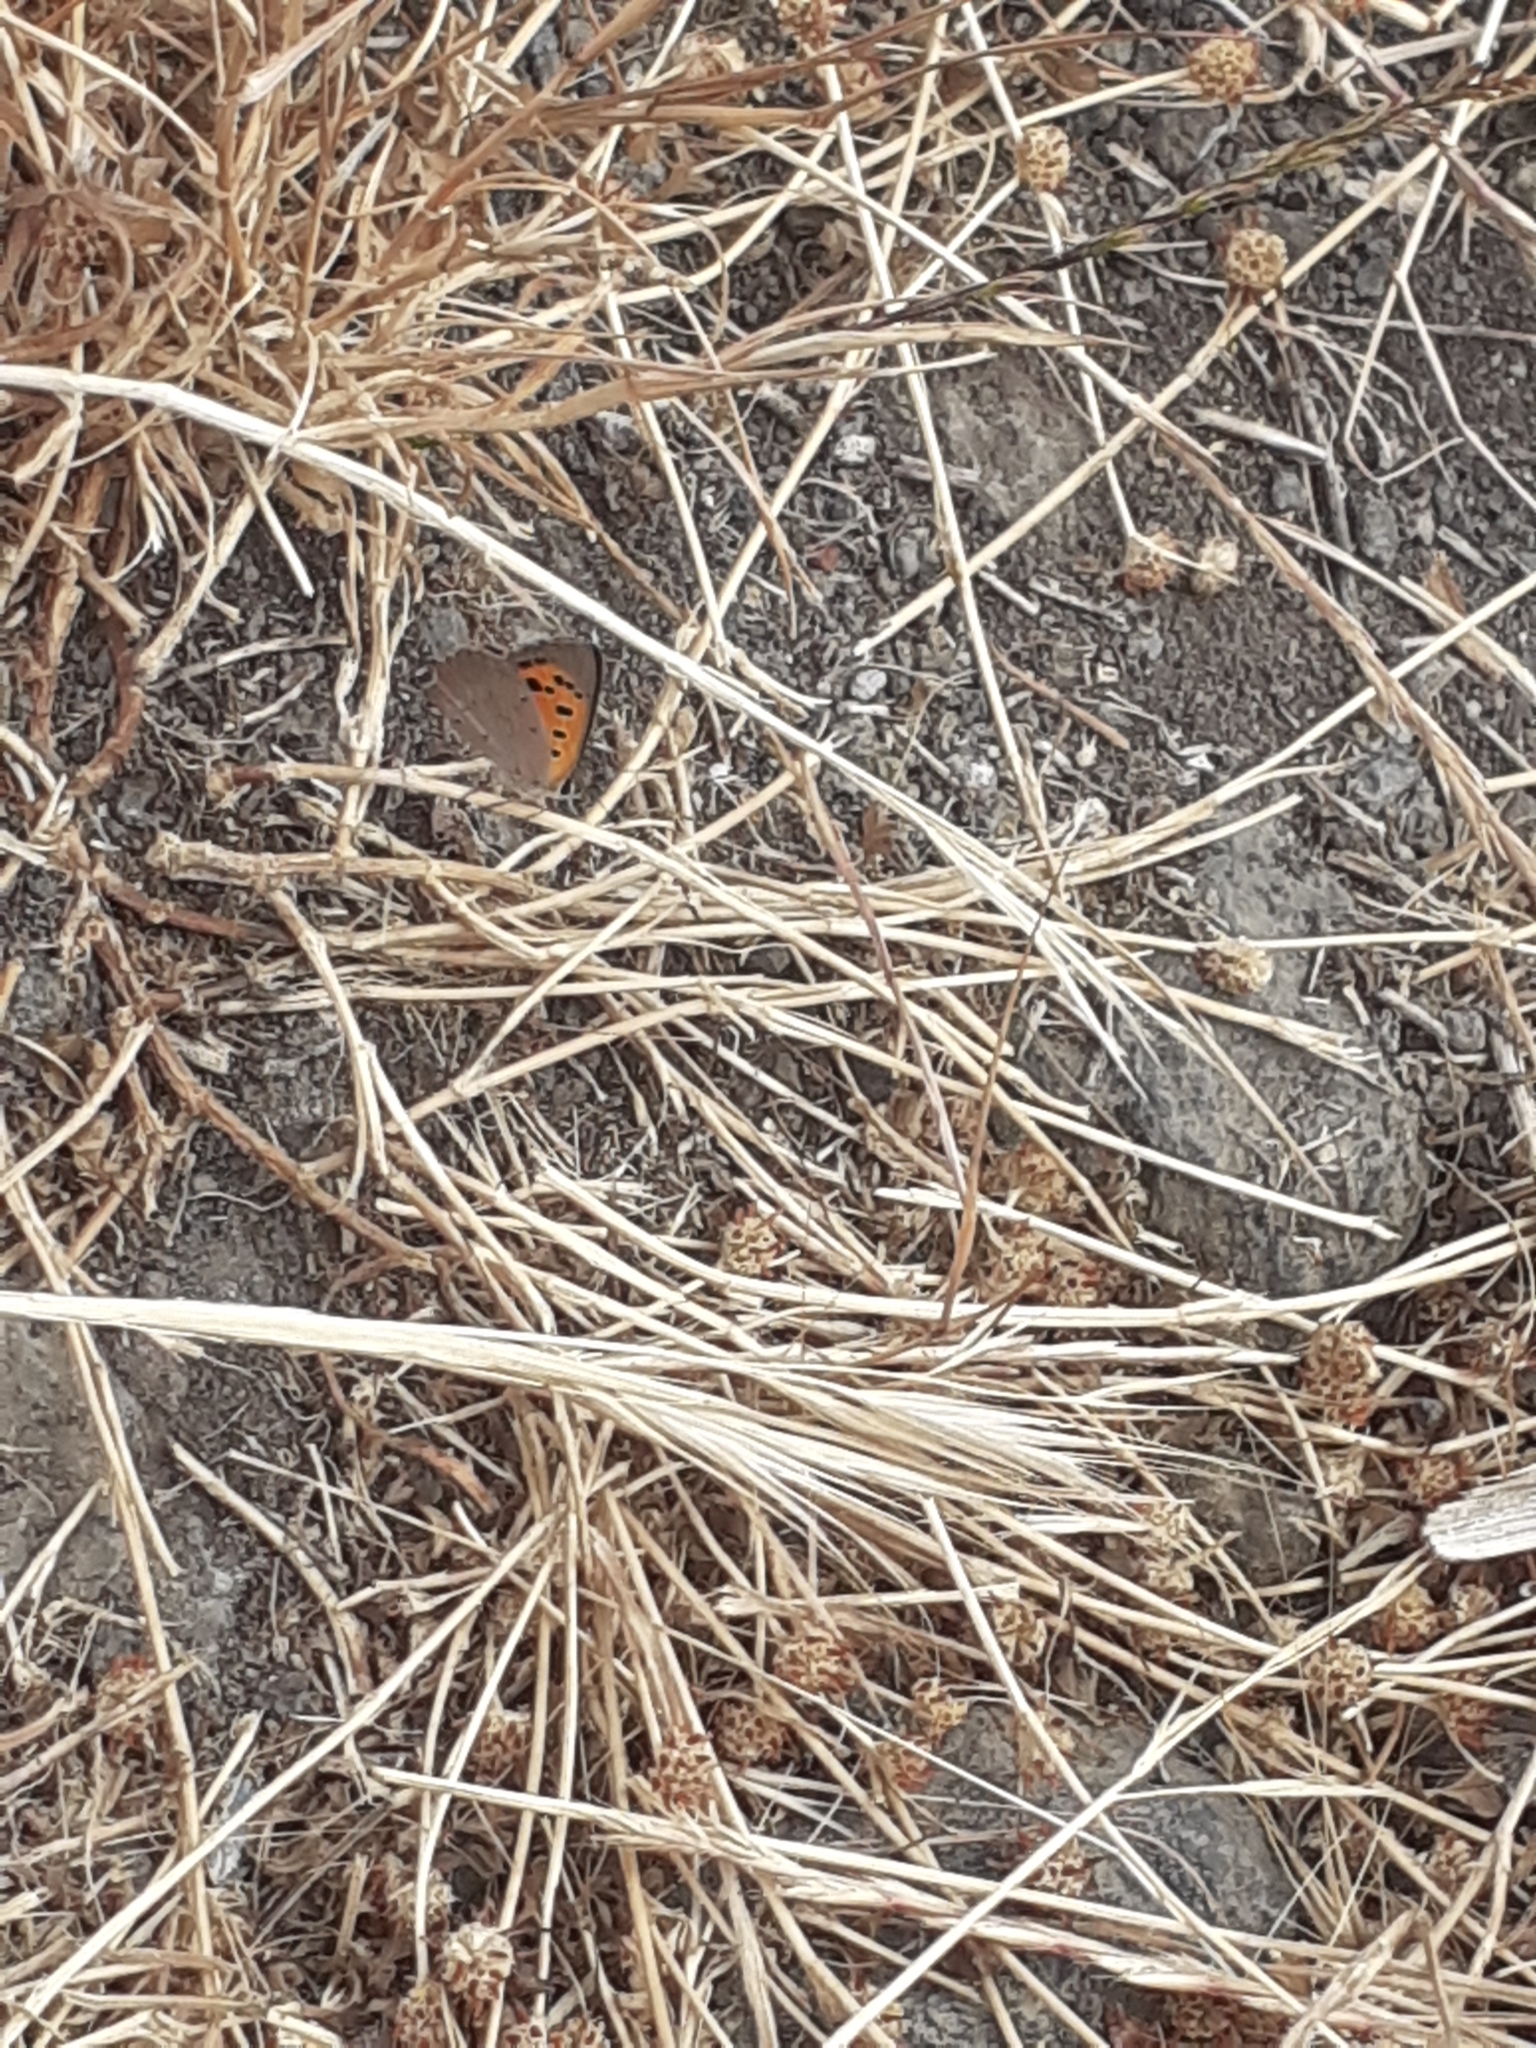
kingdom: Animalia
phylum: Arthropoda
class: Insecta
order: Lepidoptera
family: Lycaenidae
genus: Lycaena
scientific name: Lycaena phlaeas
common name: Small copper
